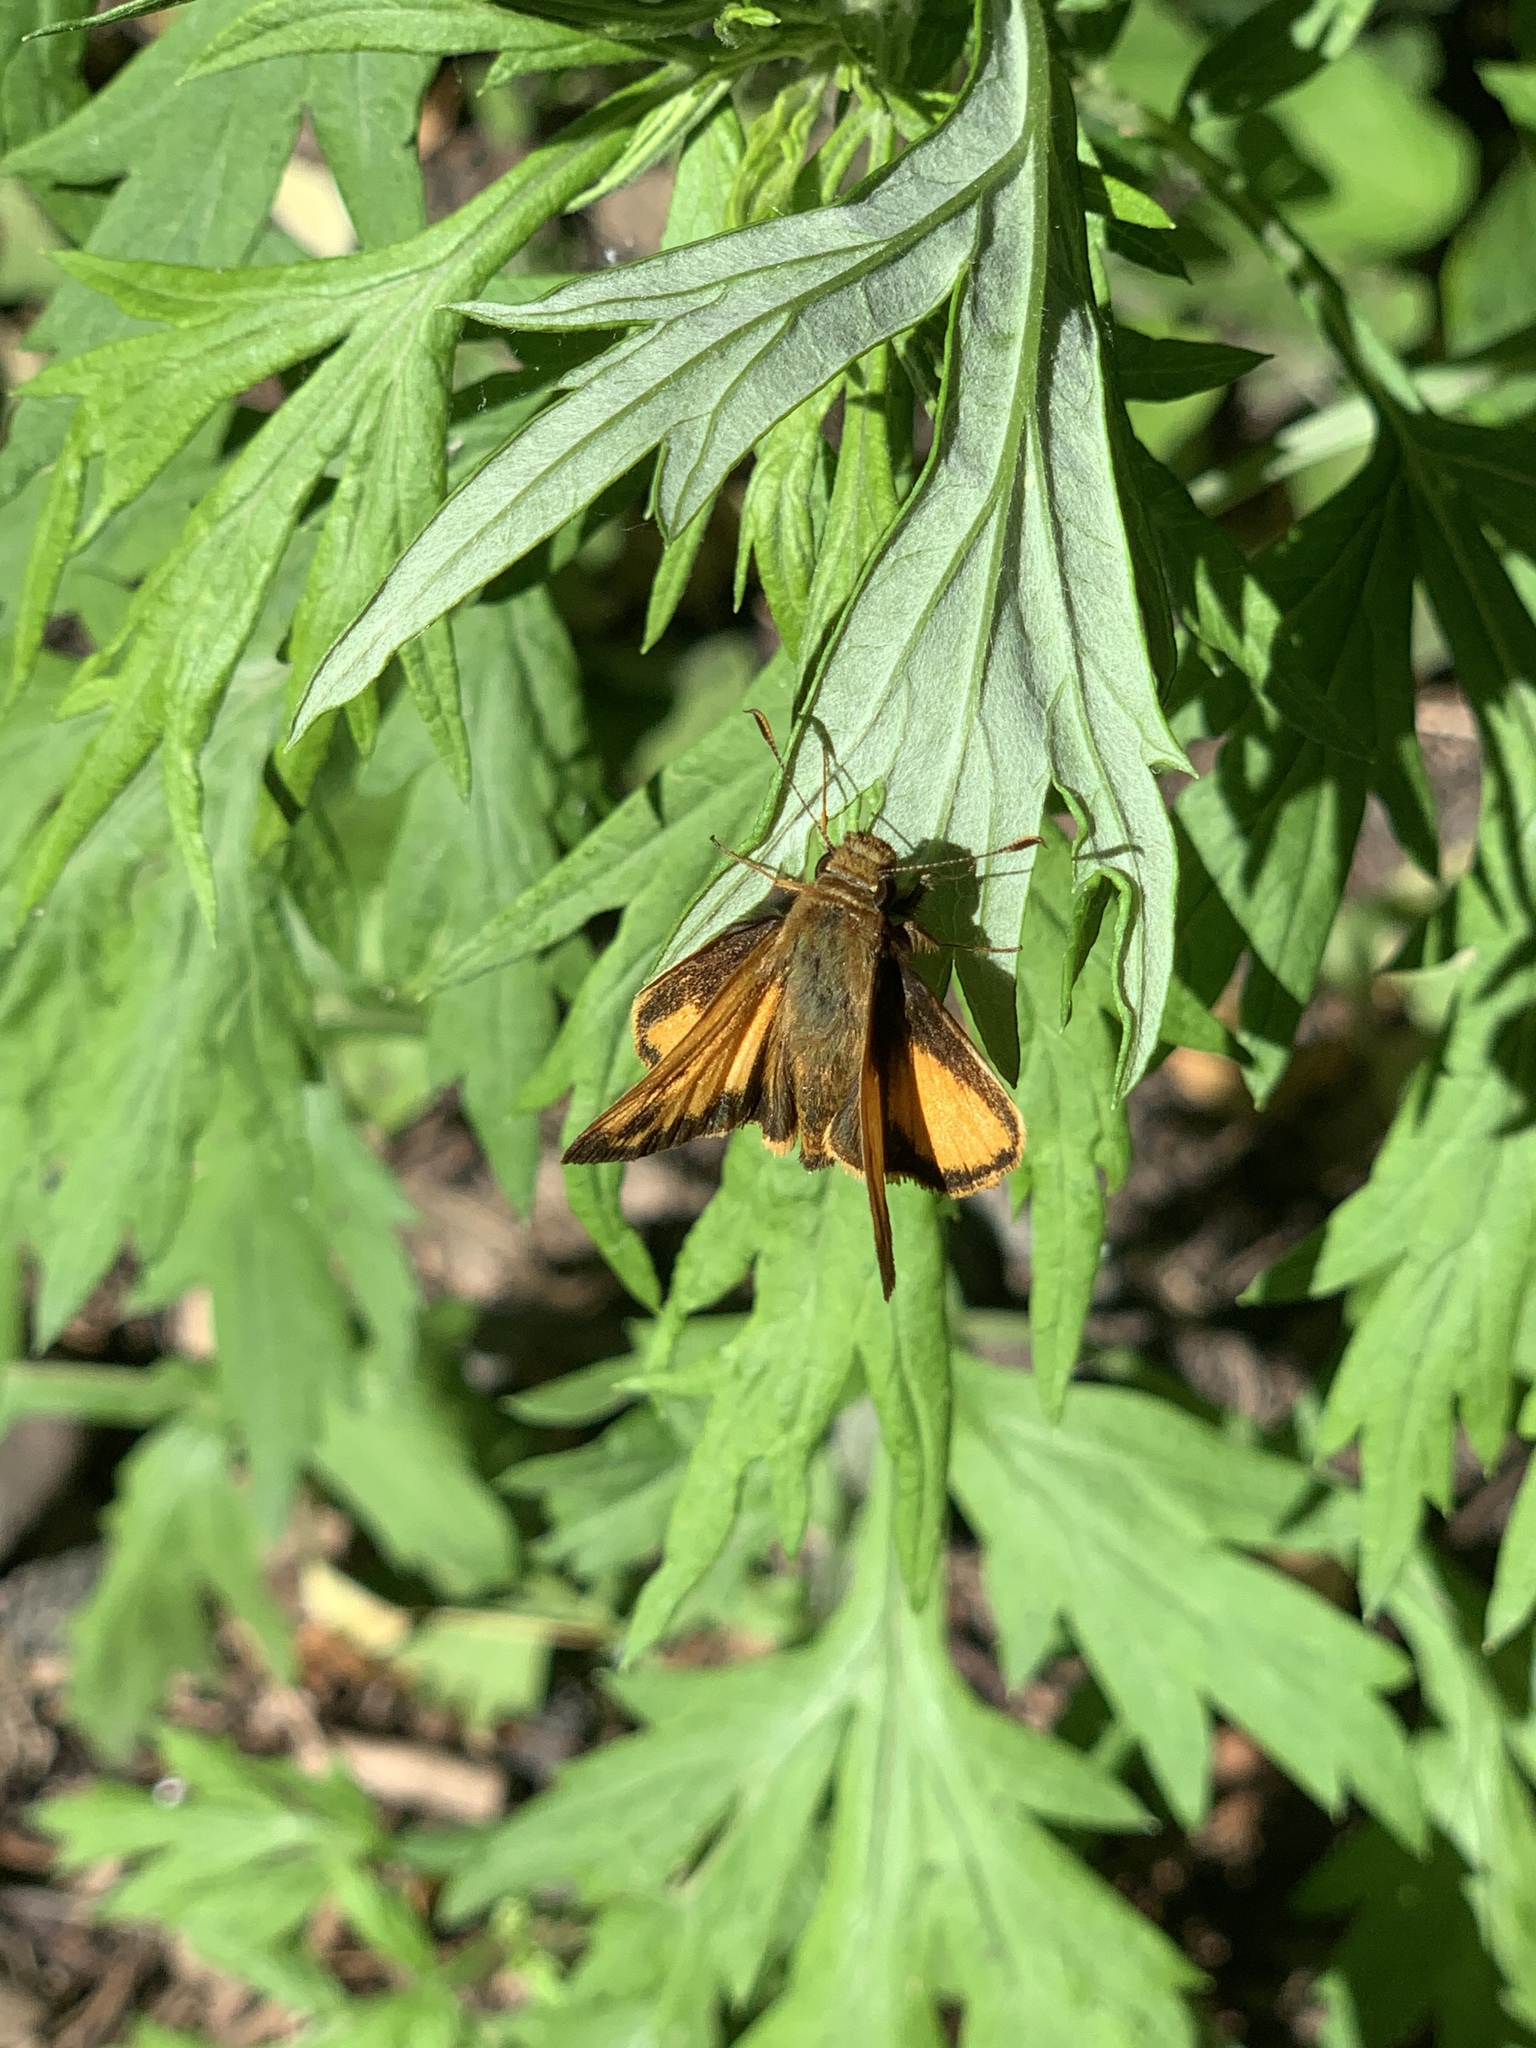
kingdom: Animalia
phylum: Arthropoda
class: Insecta
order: Lepidoptera
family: Hesperiidae
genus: Lon
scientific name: Lon zabulon
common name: Zabulon skipper
